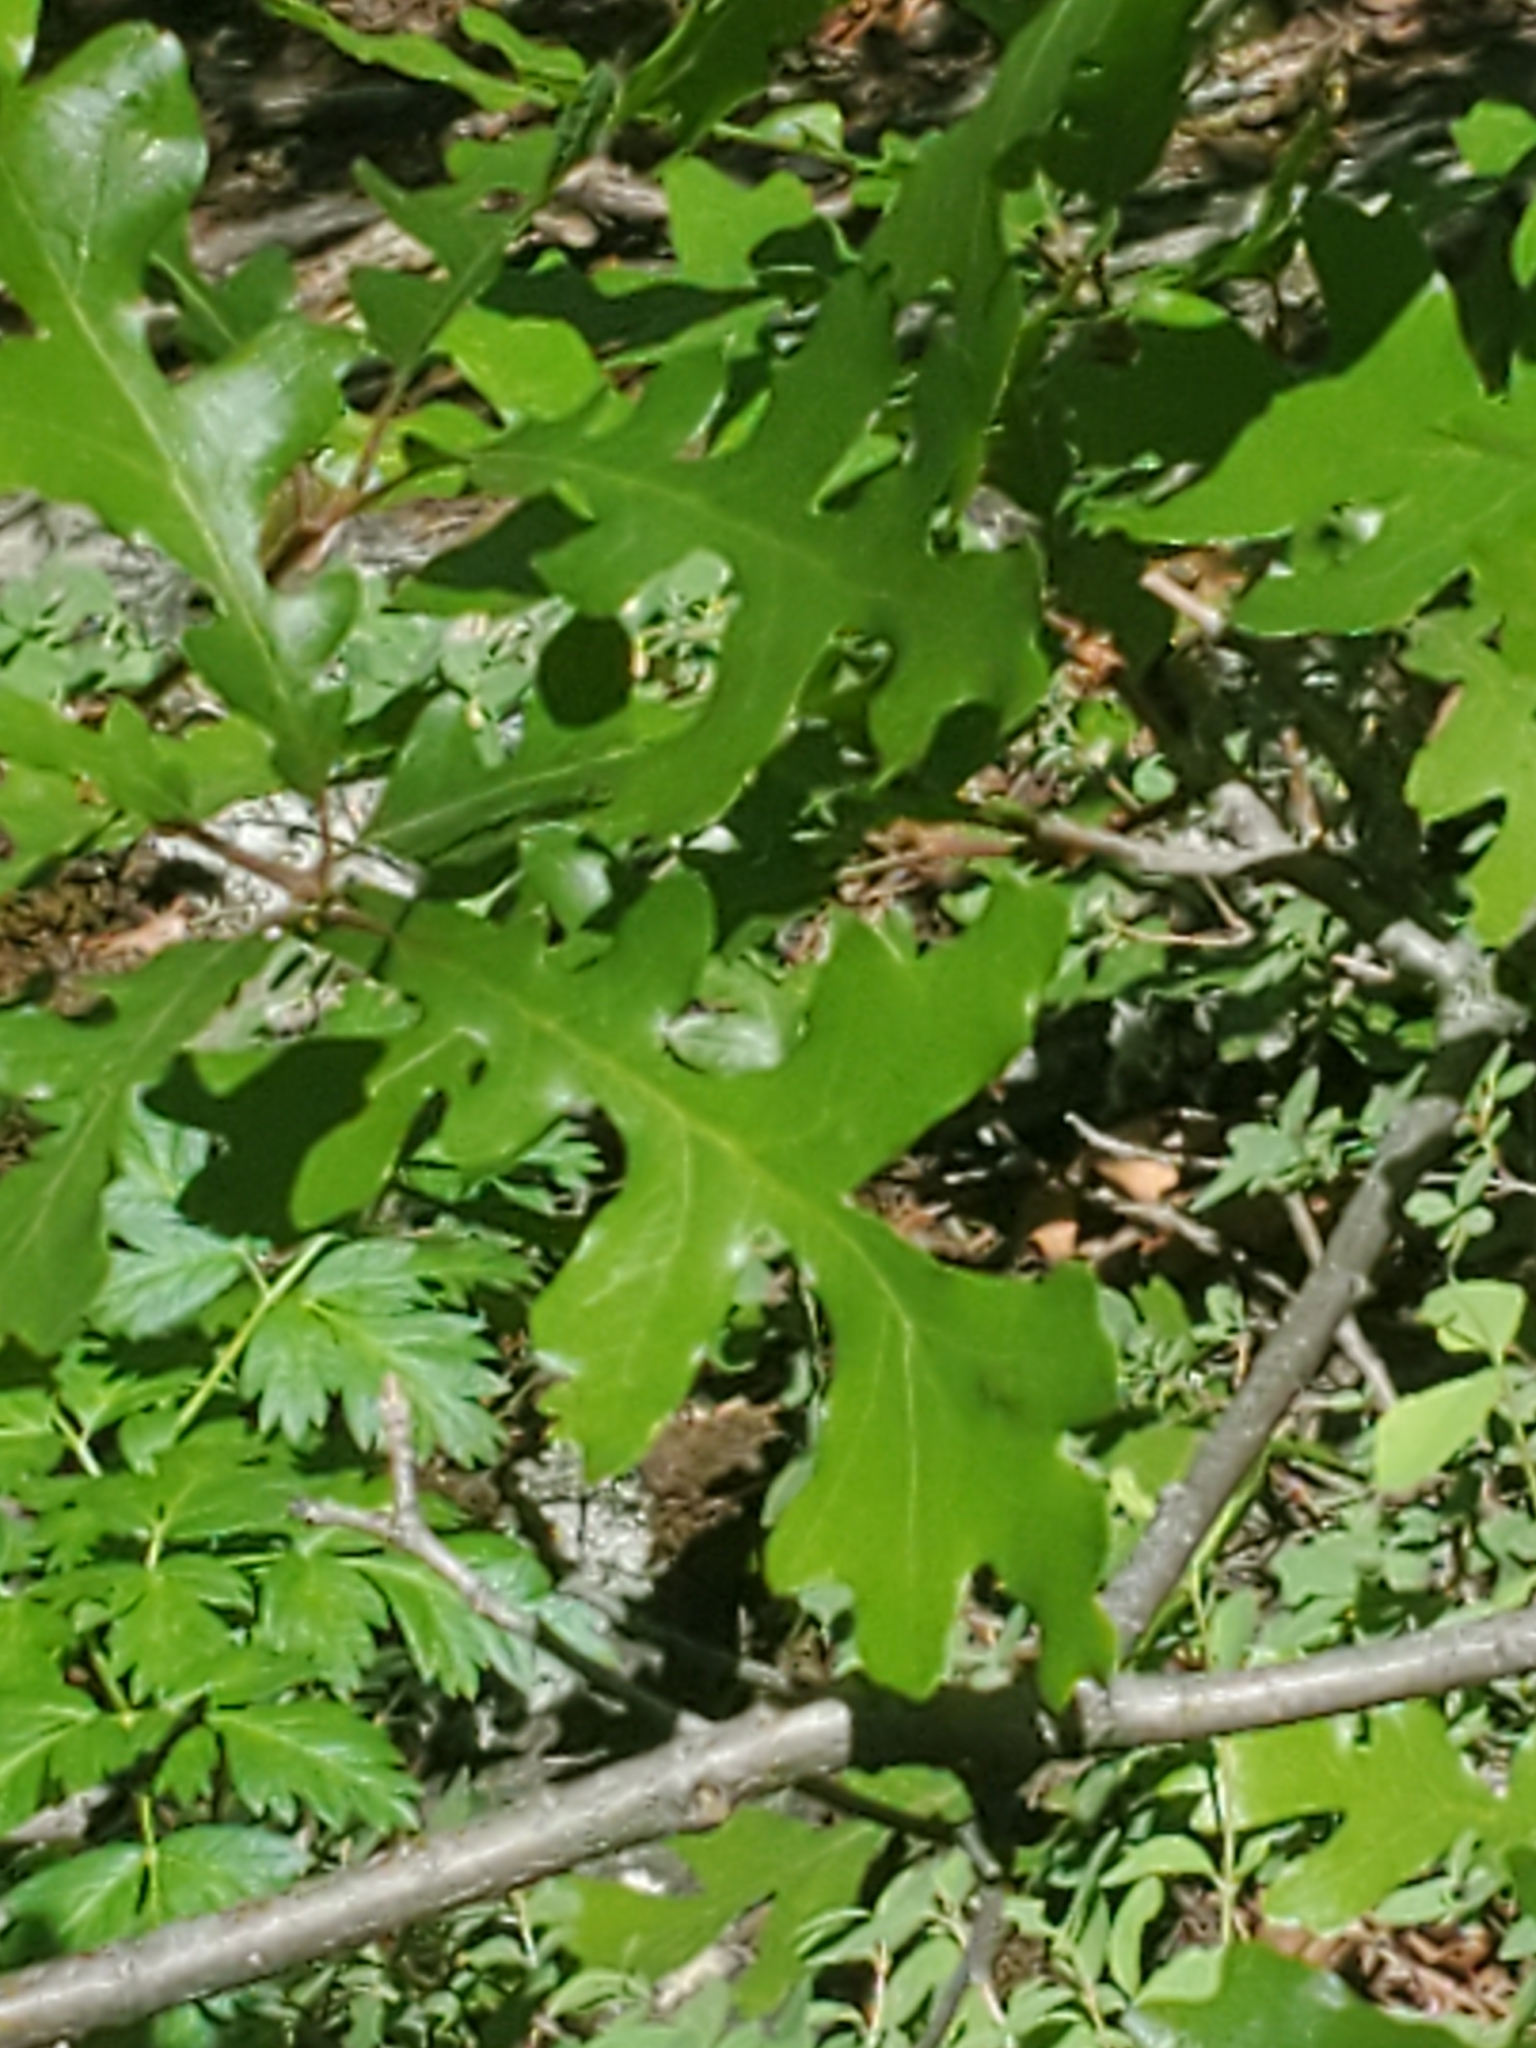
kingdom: Plantae
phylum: Tracheophyta
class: Magnoliopsida
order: Fagales
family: Fagaceae
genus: Quercus
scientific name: Quercus gambelii
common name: Gambel oak
